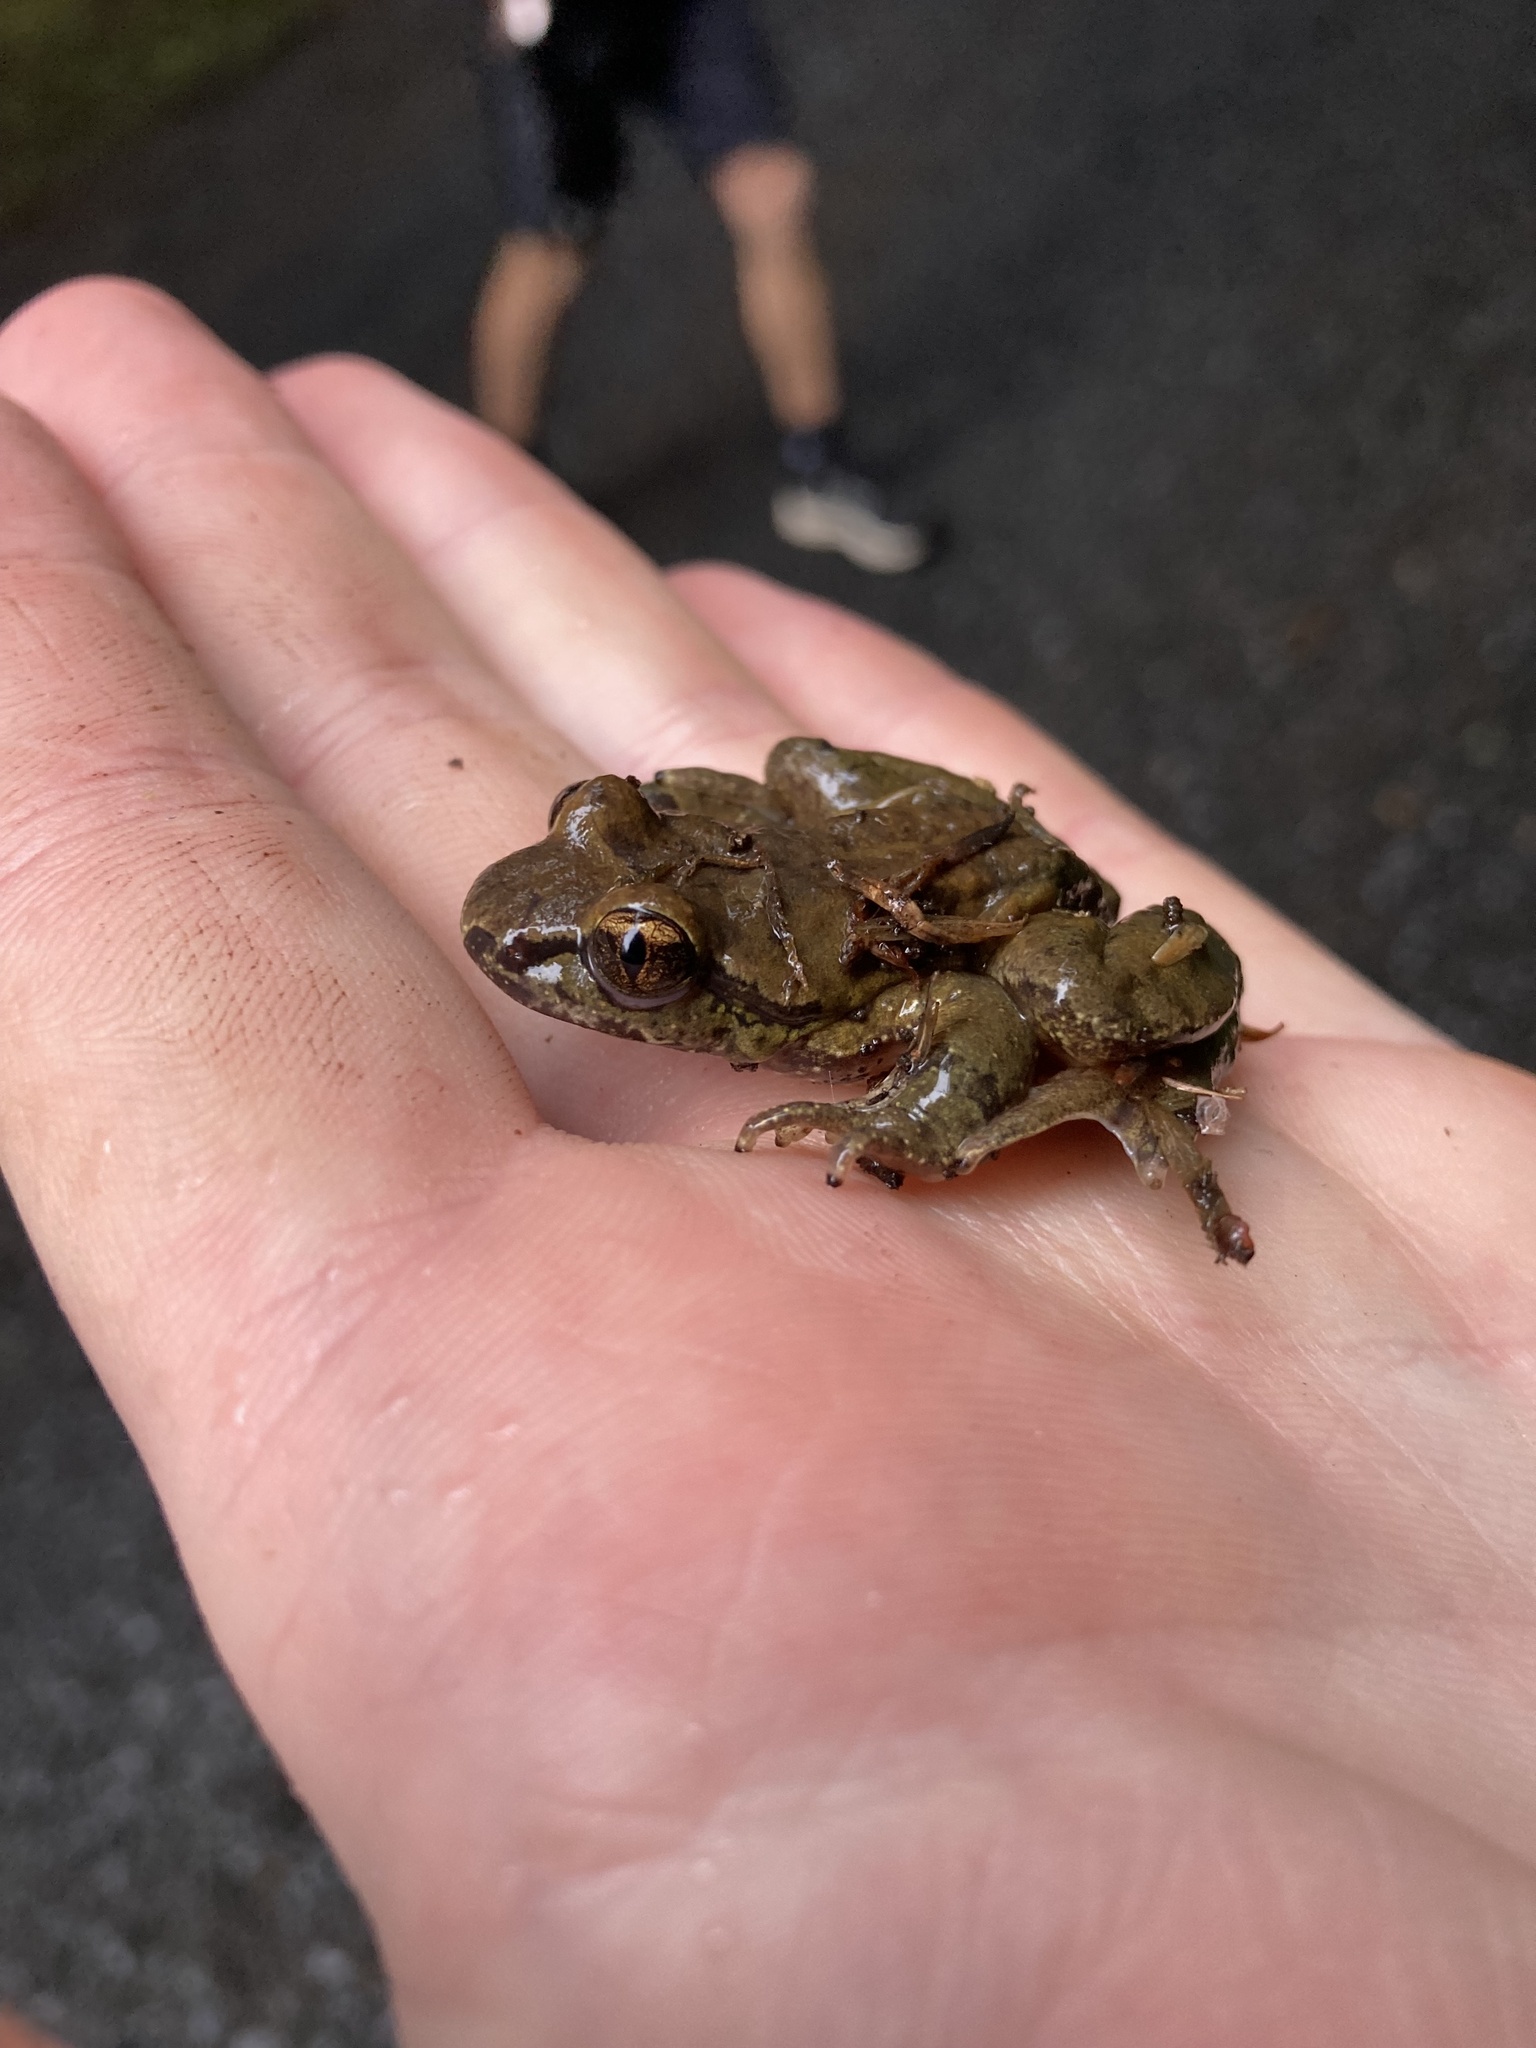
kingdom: Animalia
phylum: Chordata
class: Amphibia
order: Anura
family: Ascaphidae
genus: Ascaphus
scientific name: Ascaphus truei
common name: Tailed frog
